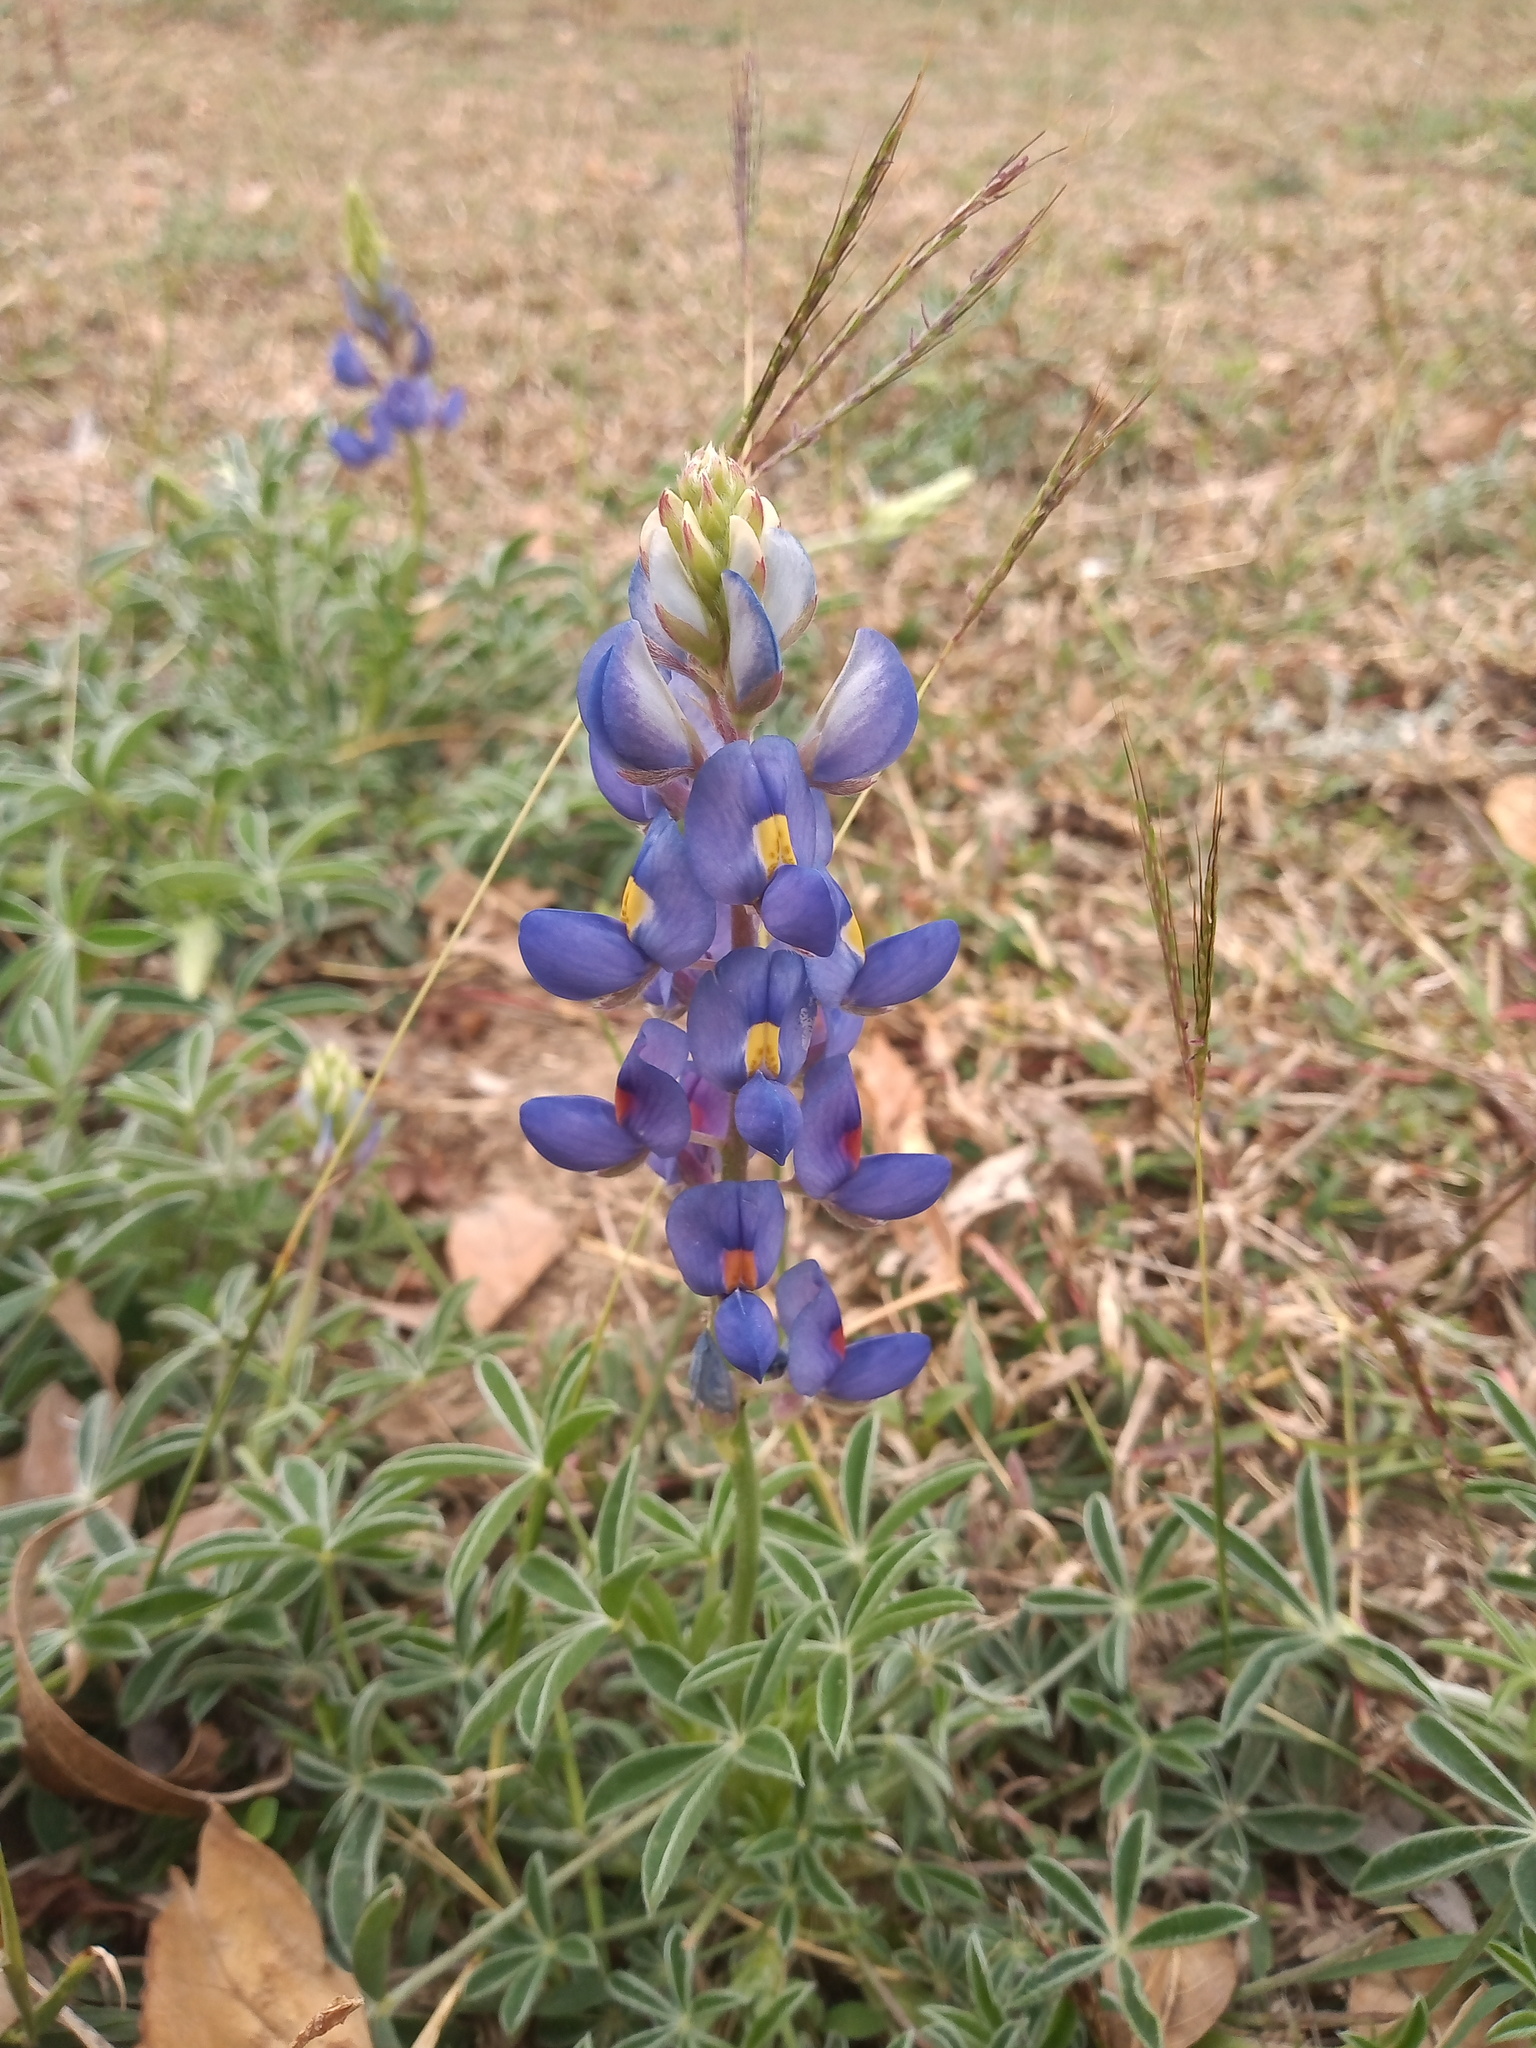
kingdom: Plantae
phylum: Tracheophyta
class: Magnoliopsida
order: Fabales
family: Fabaceae
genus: Lupinus
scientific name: Lupinus texensis
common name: Texas bluebonnet
